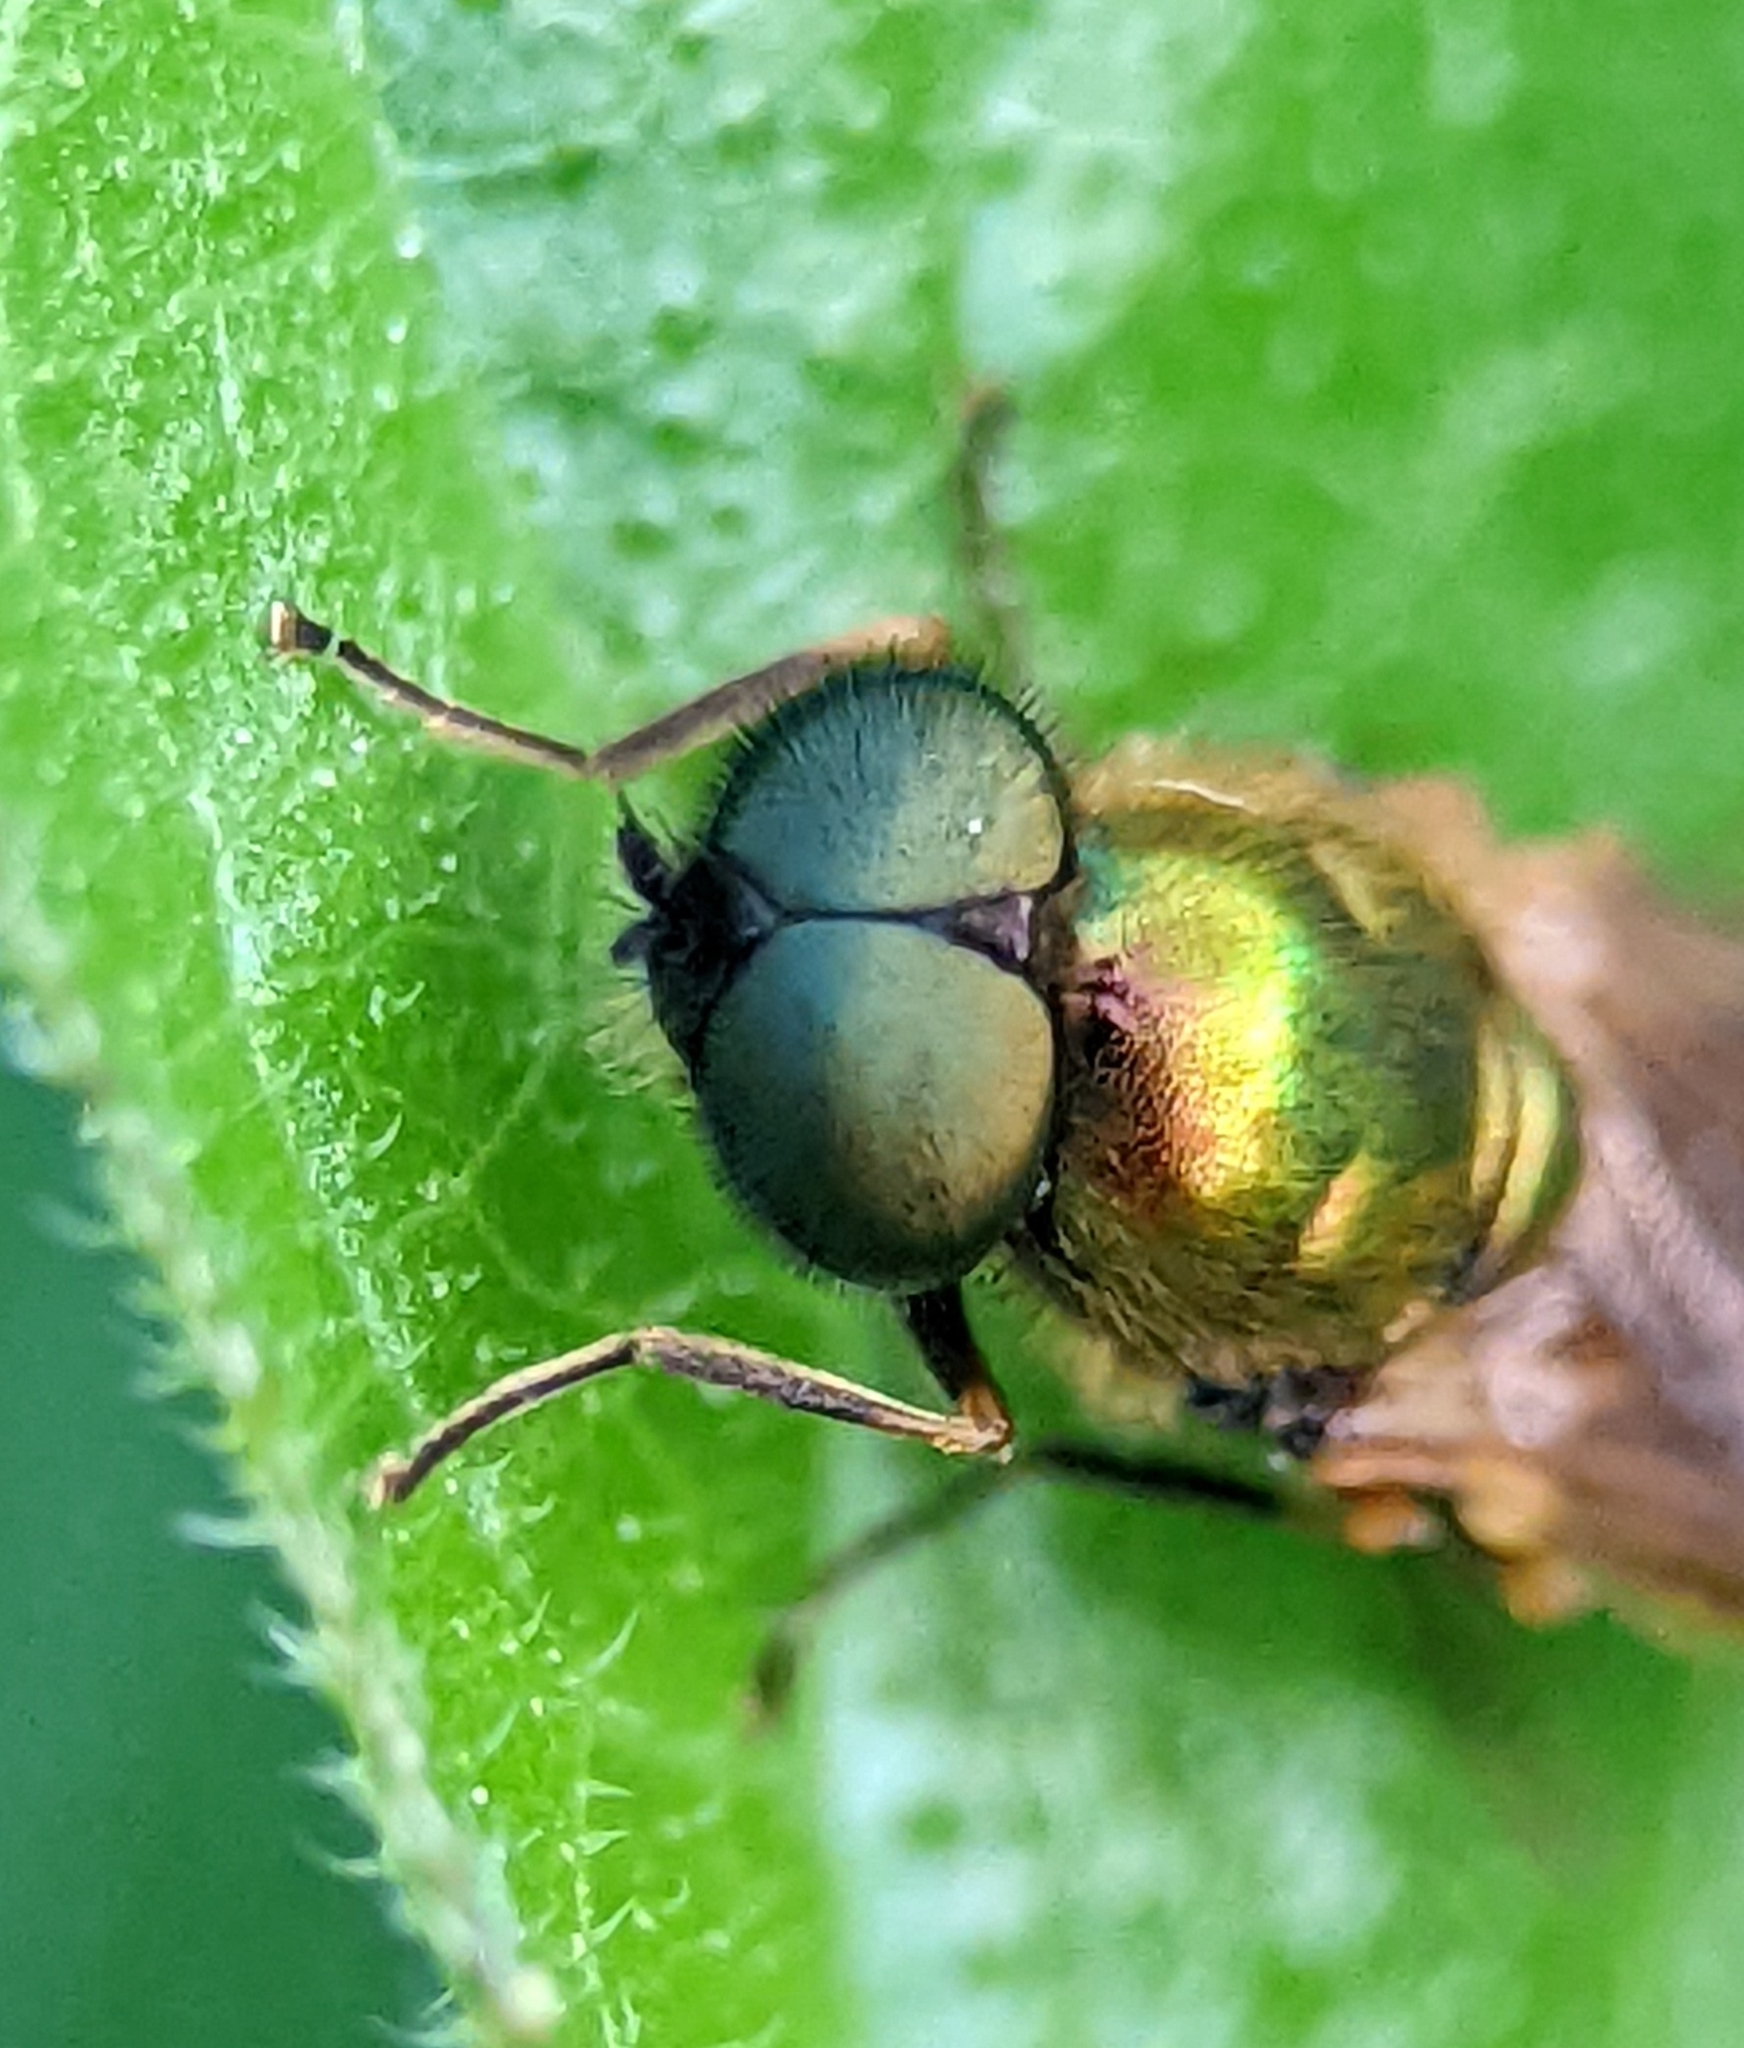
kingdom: Animalia
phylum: Arthropoda
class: Insecta
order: Diptera
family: Stratiomyidae
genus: Chloromyia
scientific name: Chloromyia formosa
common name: Soldier fly
